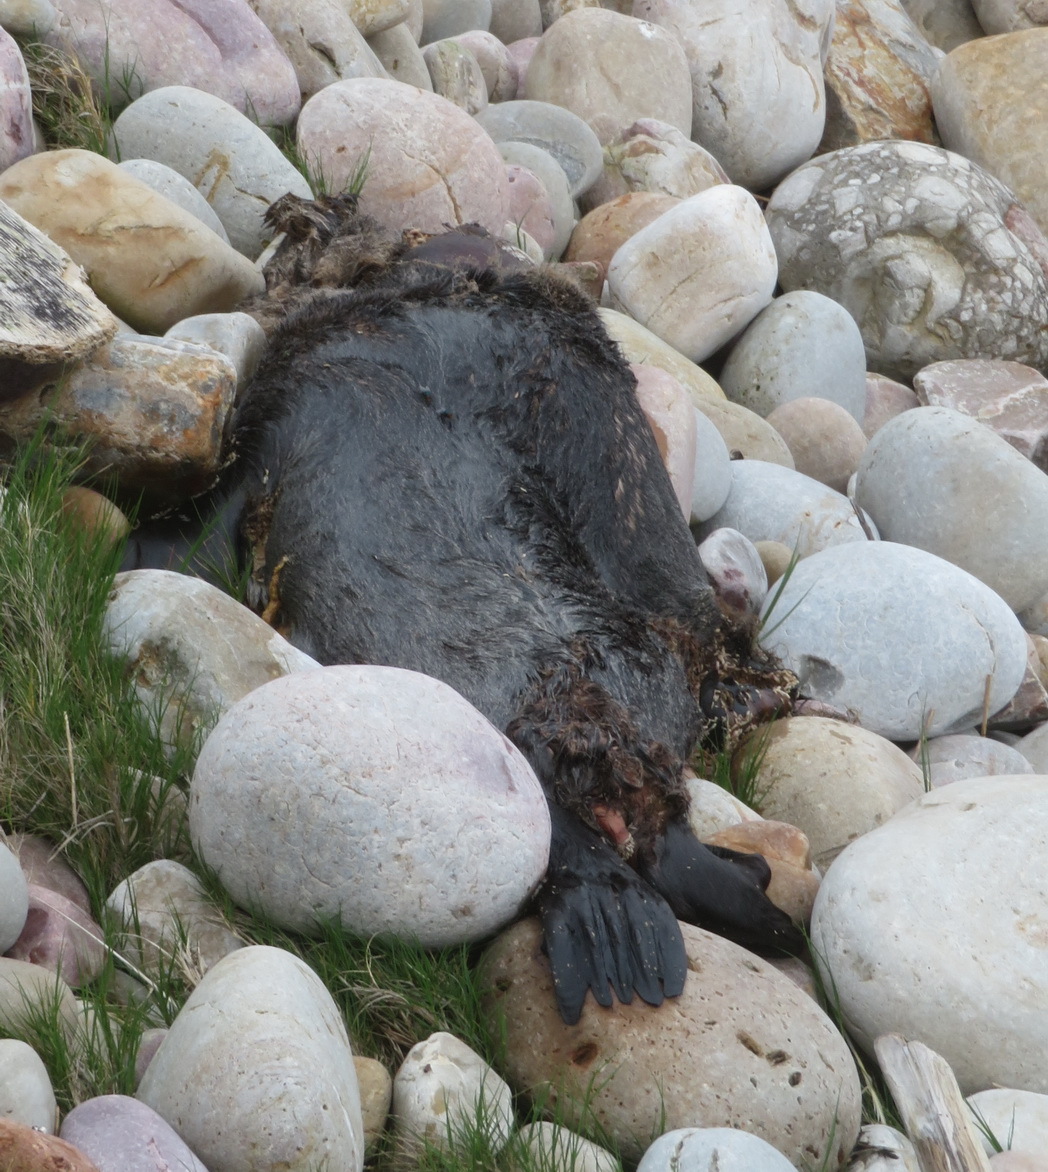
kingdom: Animalia
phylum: Chordata
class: Mammalia
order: Carnivora
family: Otariidae
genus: Arctocephalus
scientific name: Arctocephalus pusillus
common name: Brown fur seal
